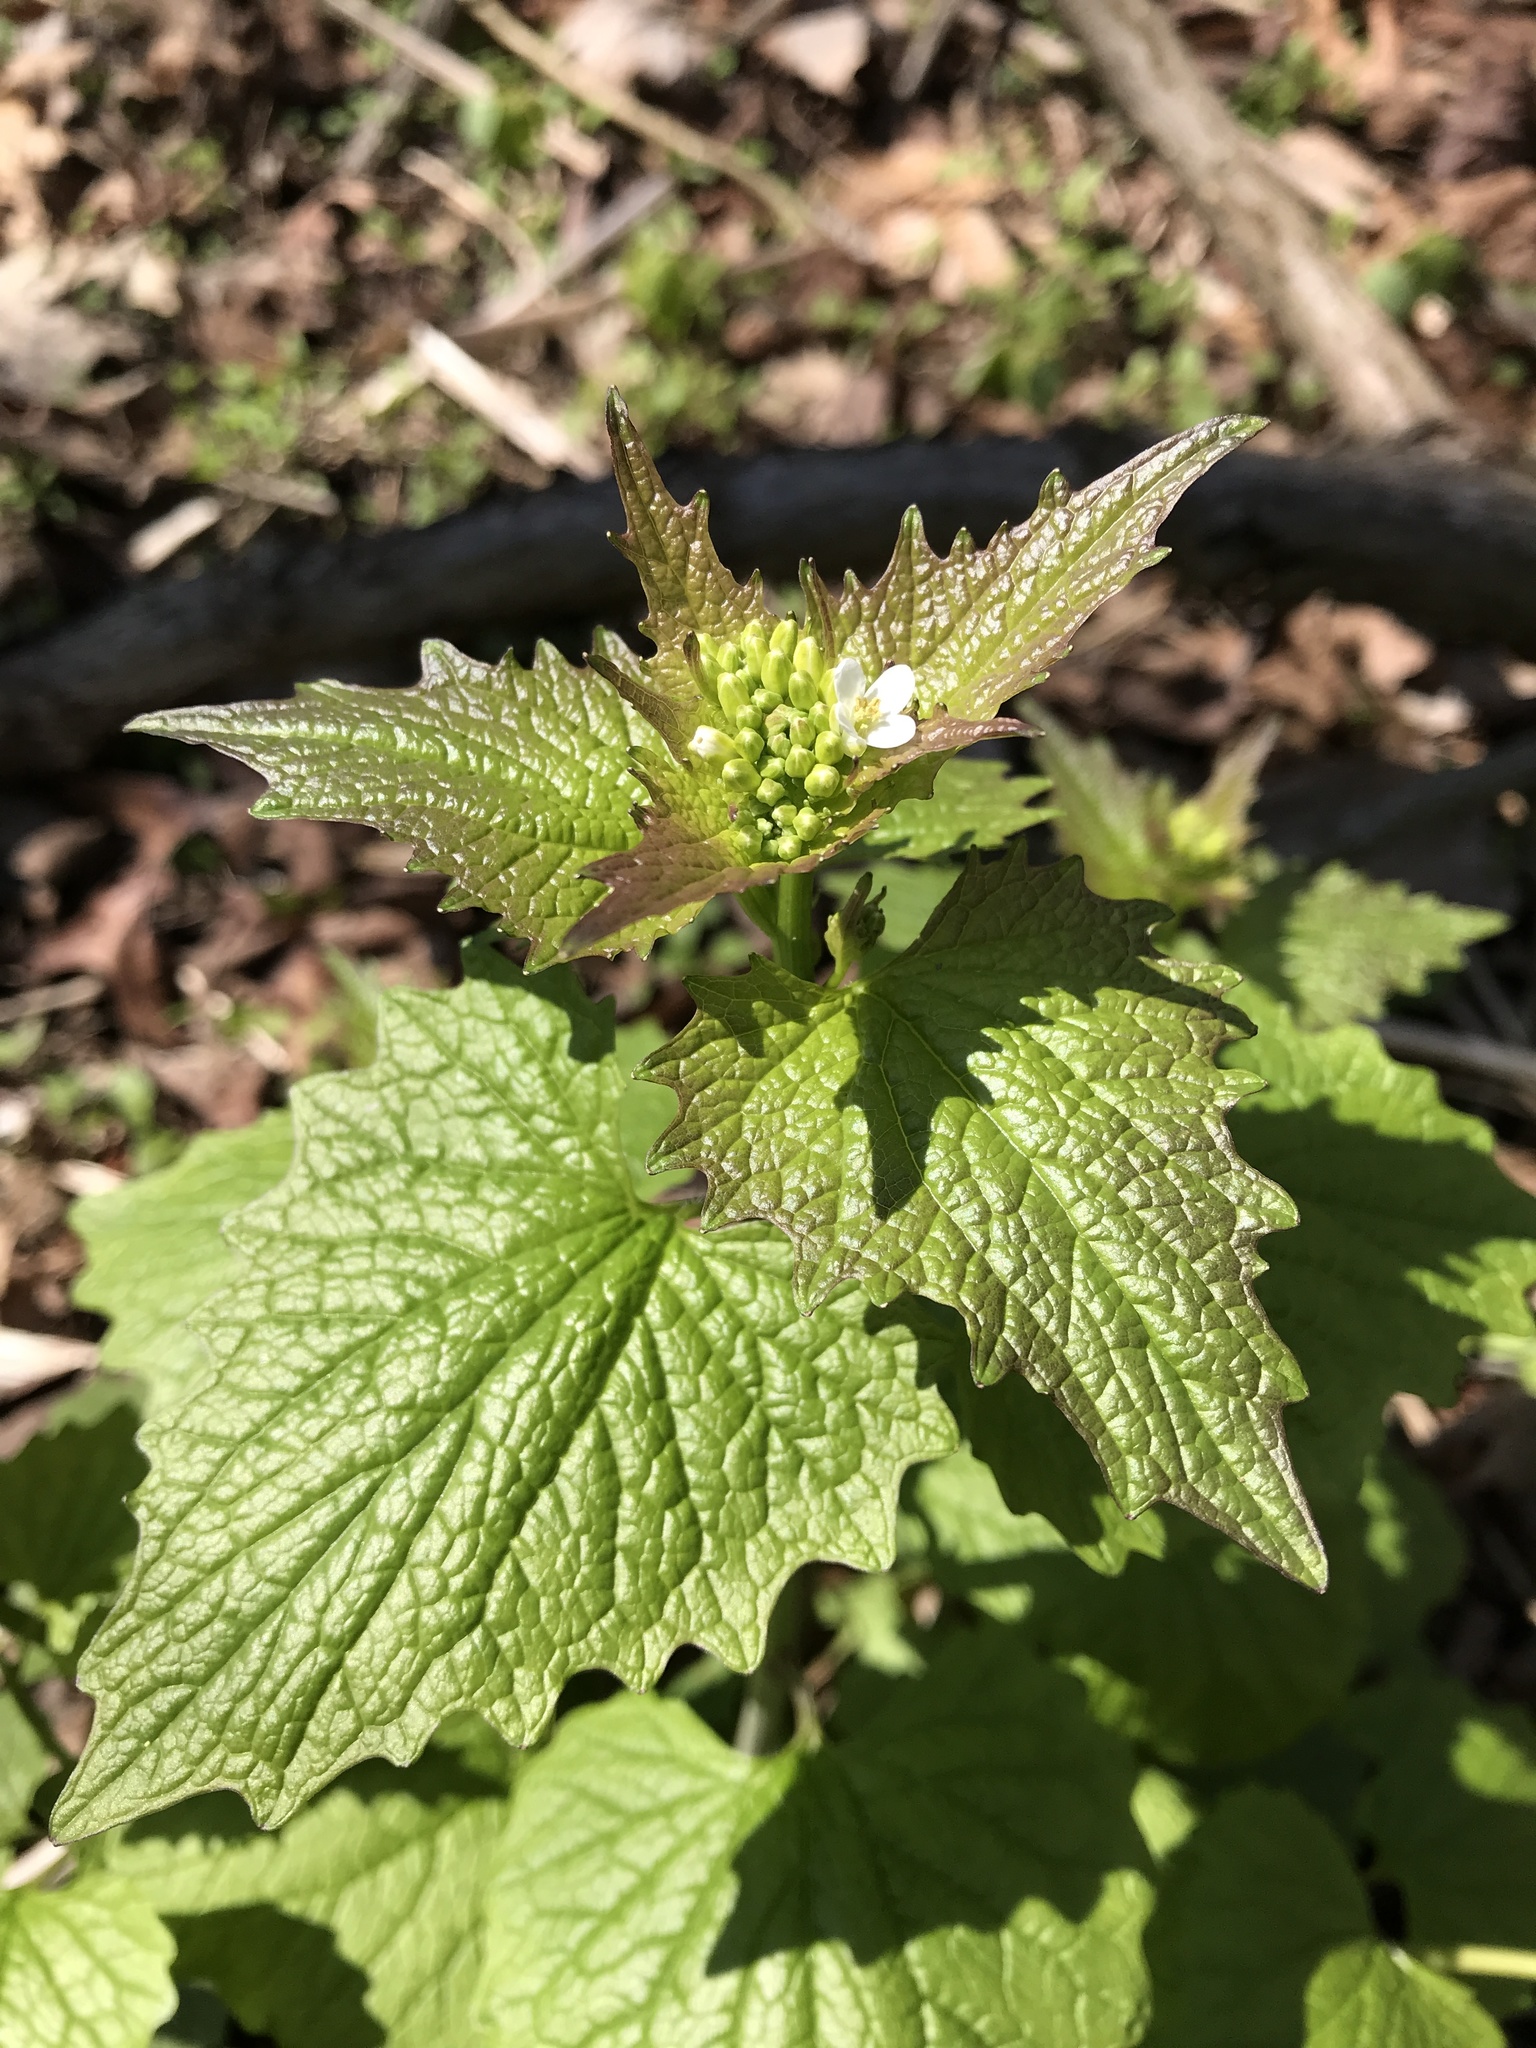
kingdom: Plantae
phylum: Tracheophyta
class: Magnoliopsida
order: Brassicales
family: Brassicaceae
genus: Alliaria
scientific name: Alliaria petiolata
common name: Garlic mustard
